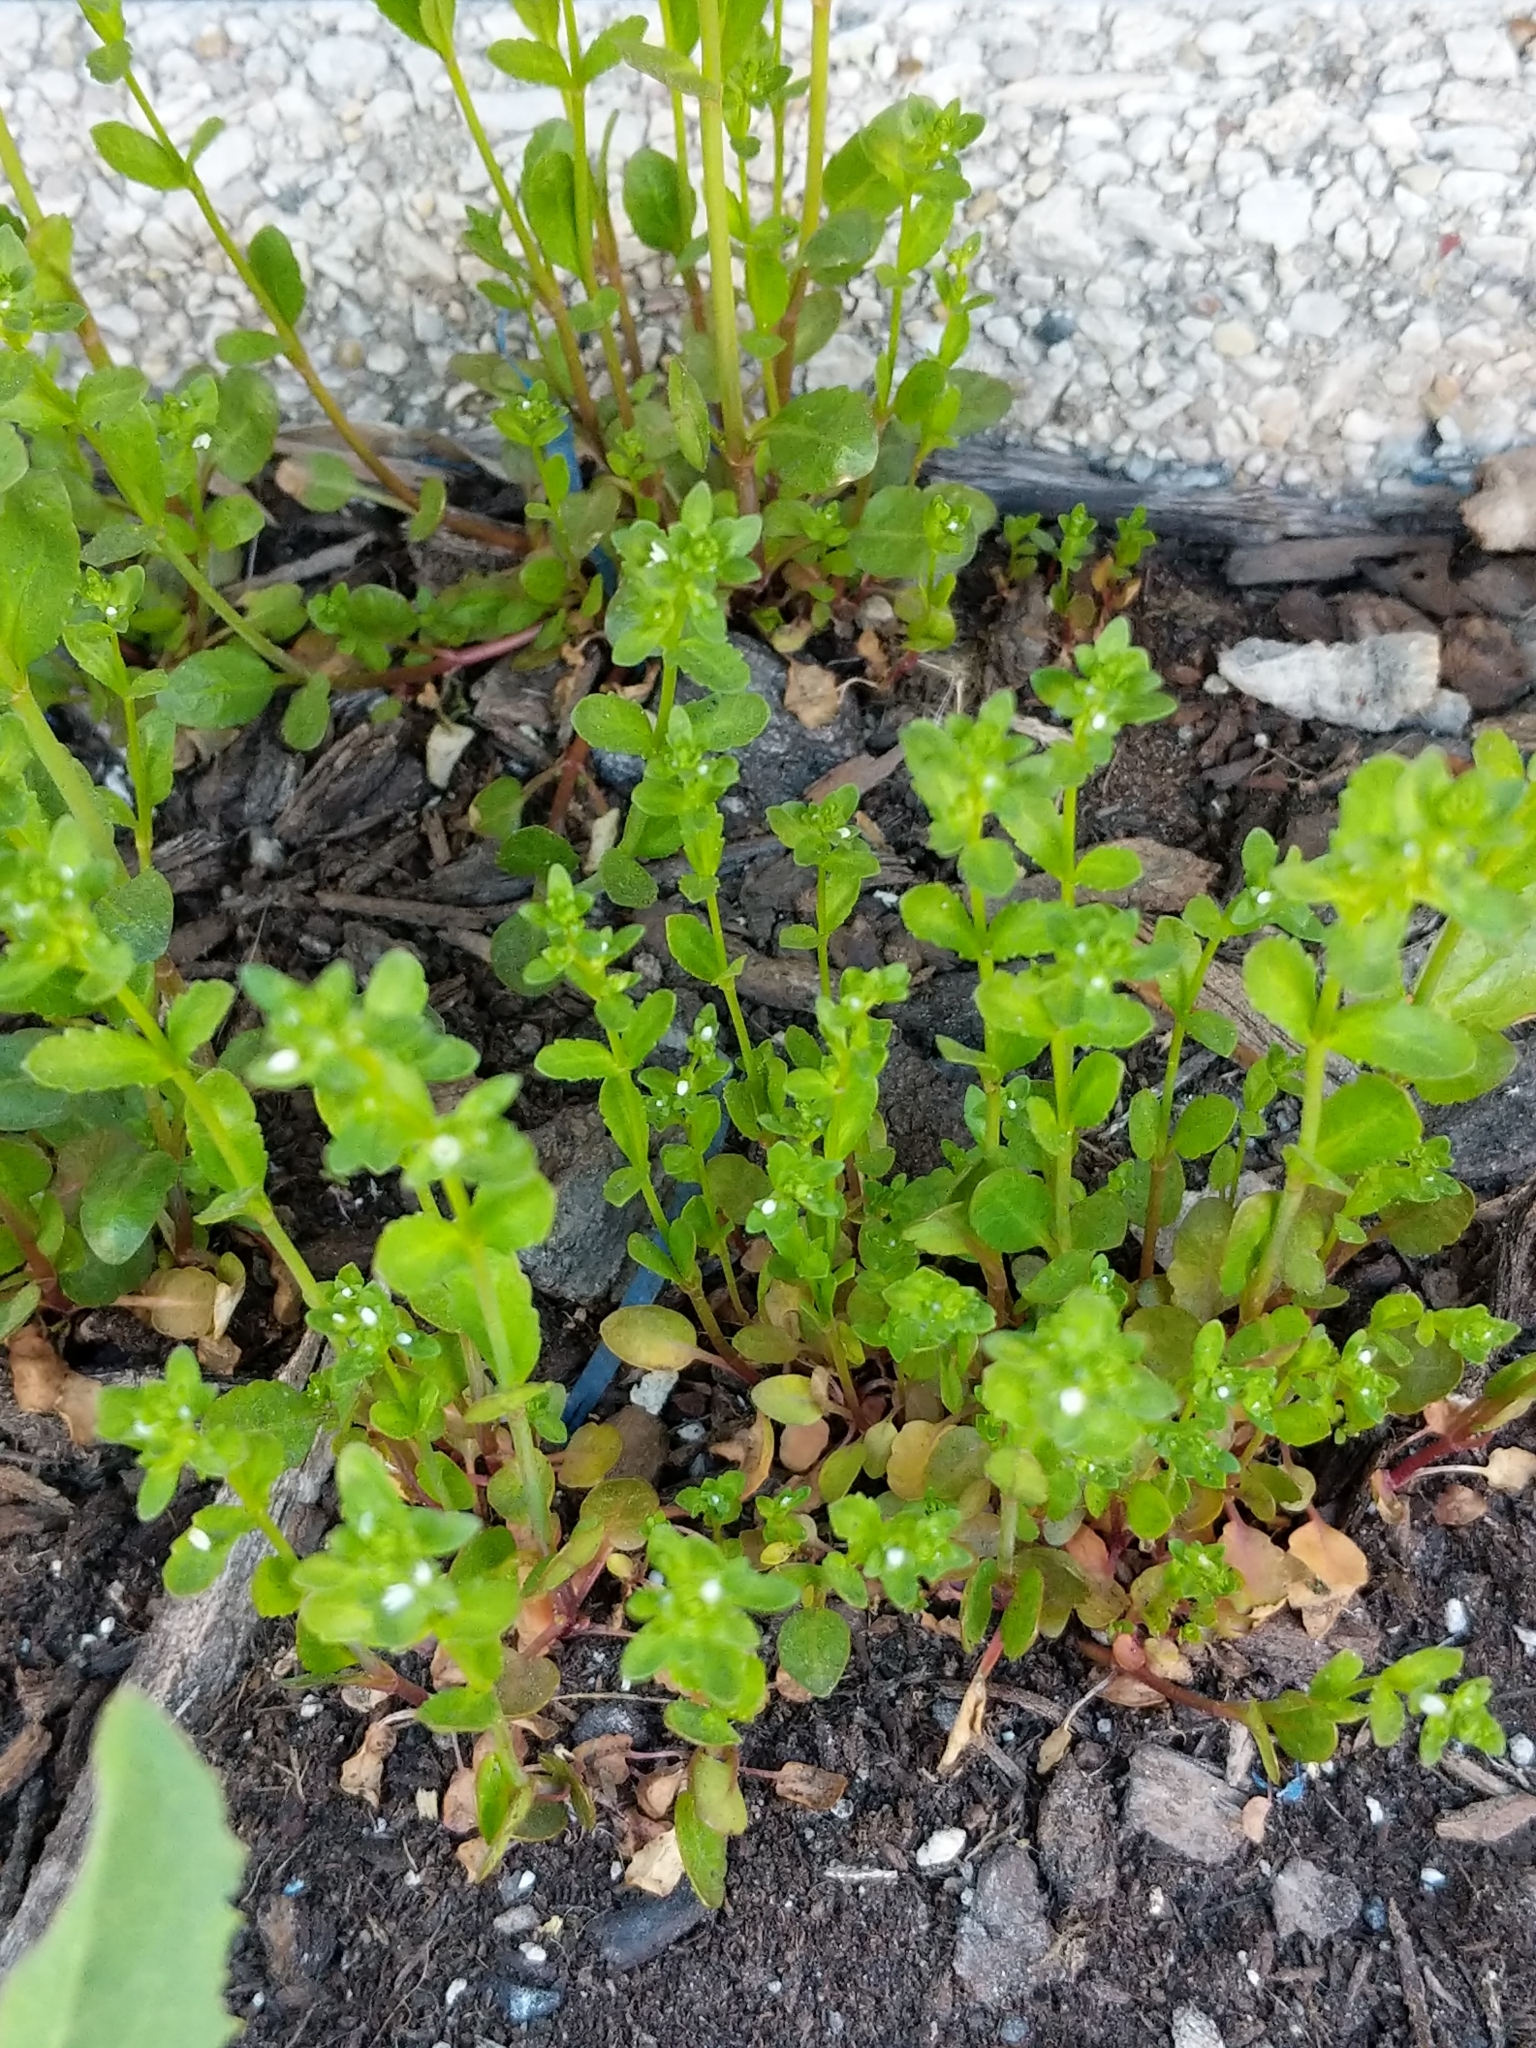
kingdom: Plantae
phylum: Tracheophyta
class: Magnoliopsida
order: Lamiales
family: Plantaginaceae
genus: Veronica
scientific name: Veronica peregrina
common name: Neckweed
